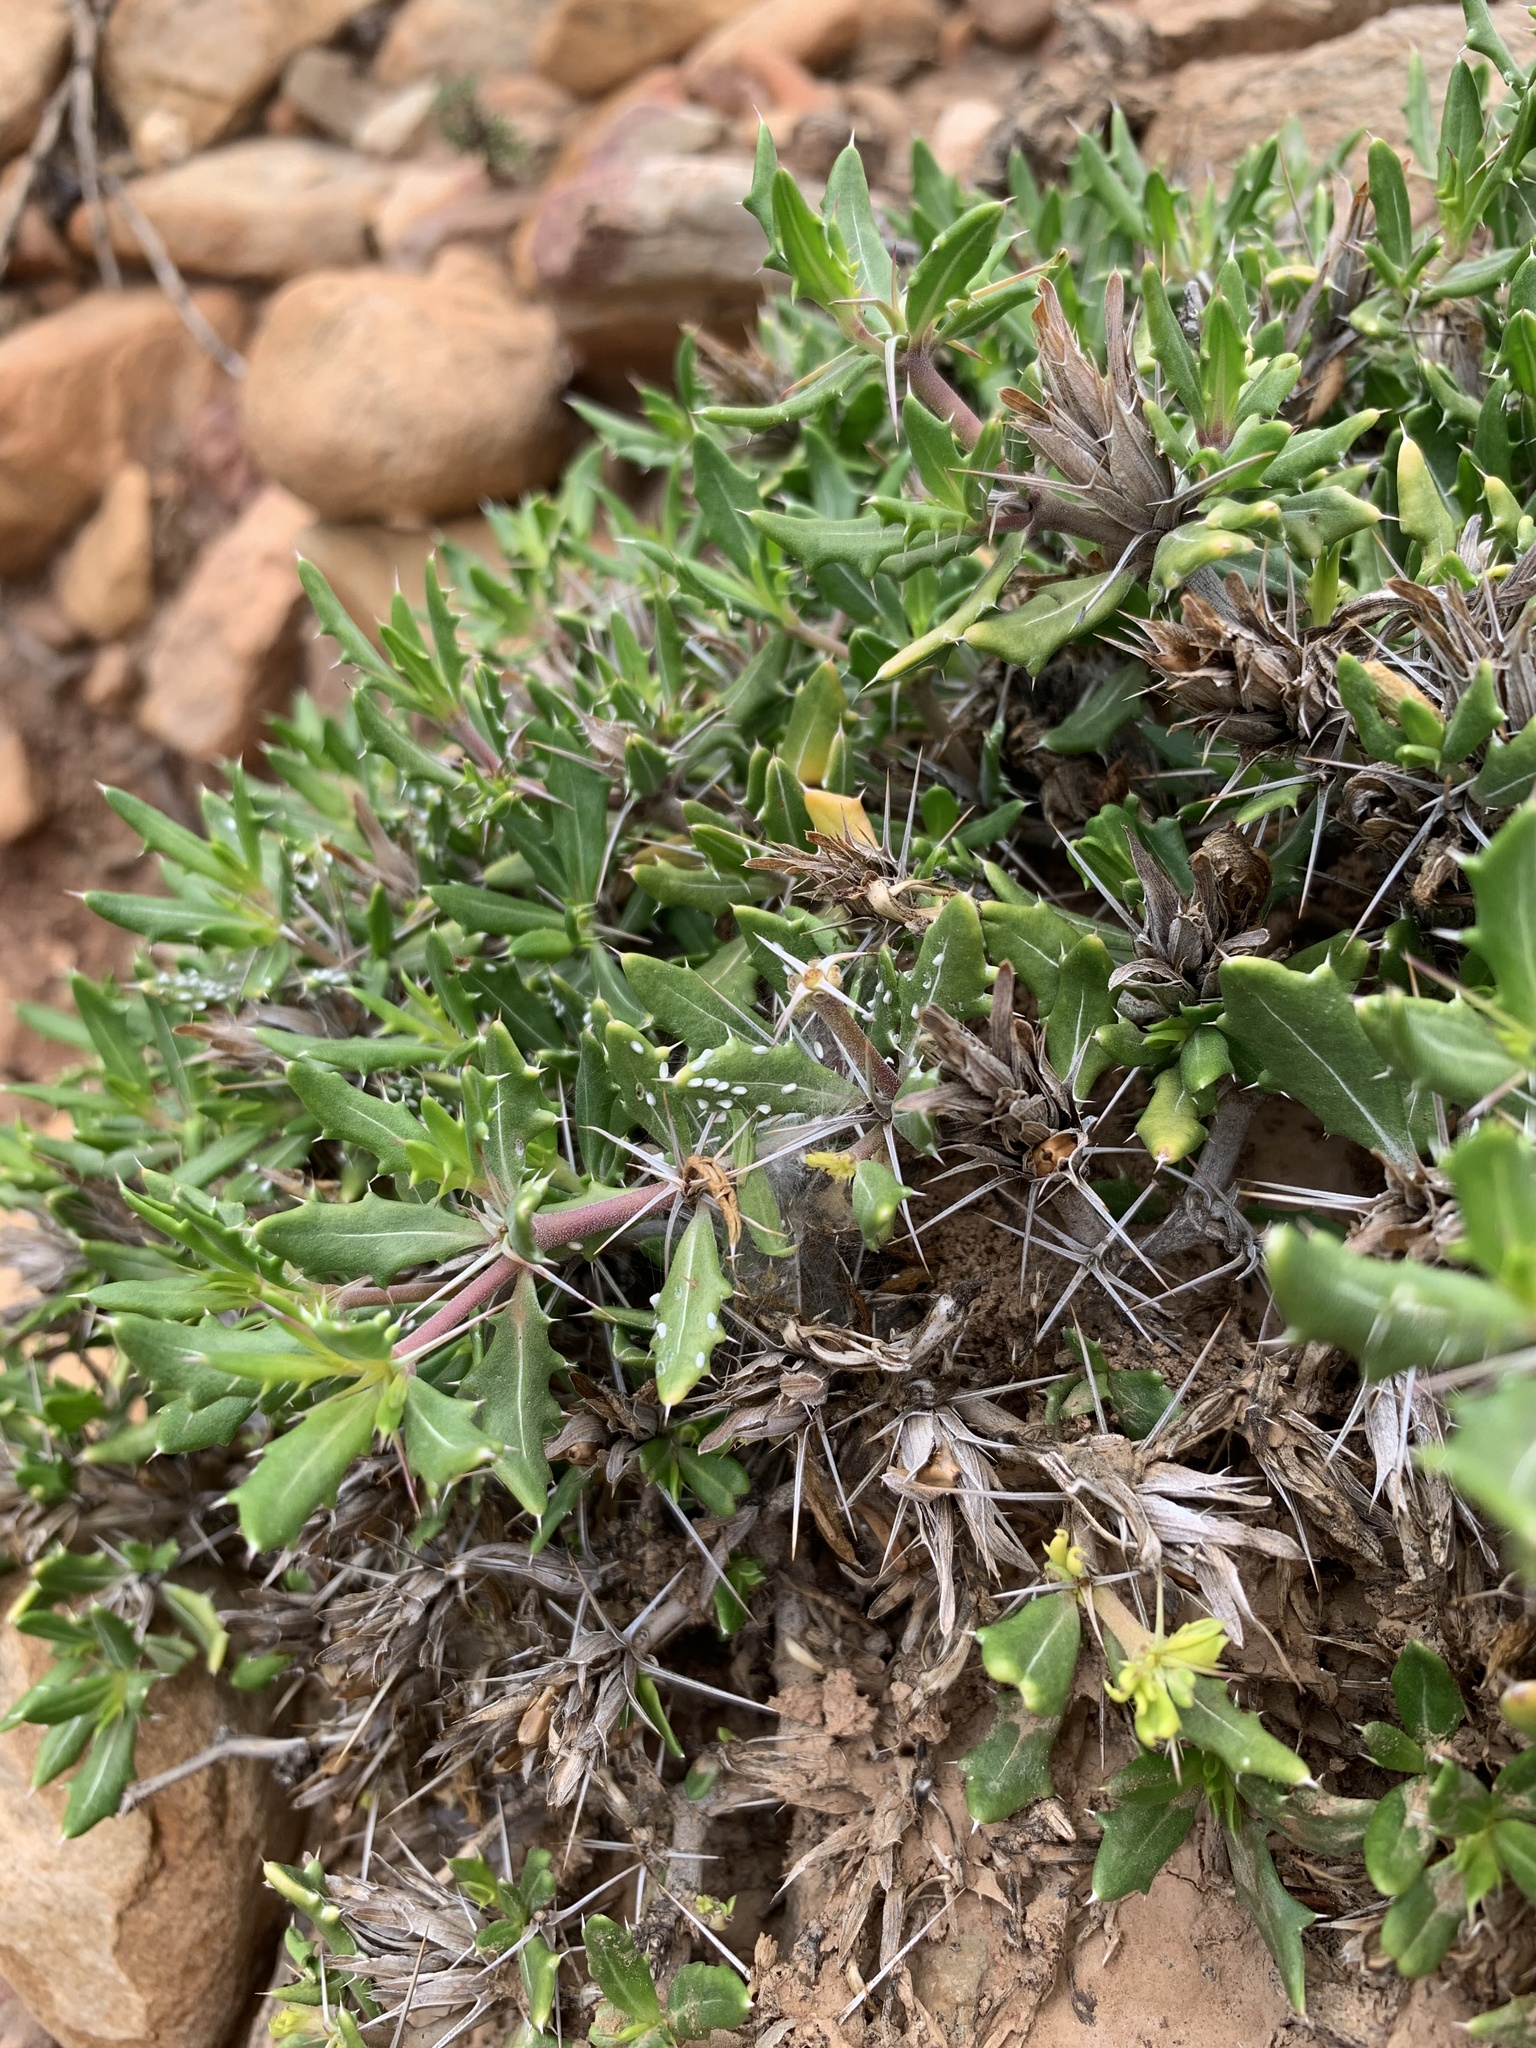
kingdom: Plantae
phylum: Tracheophyta
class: Magnoliopsida
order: Lamiales
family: Acanthaceae
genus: Blepharis
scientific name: Blepharis inermis
